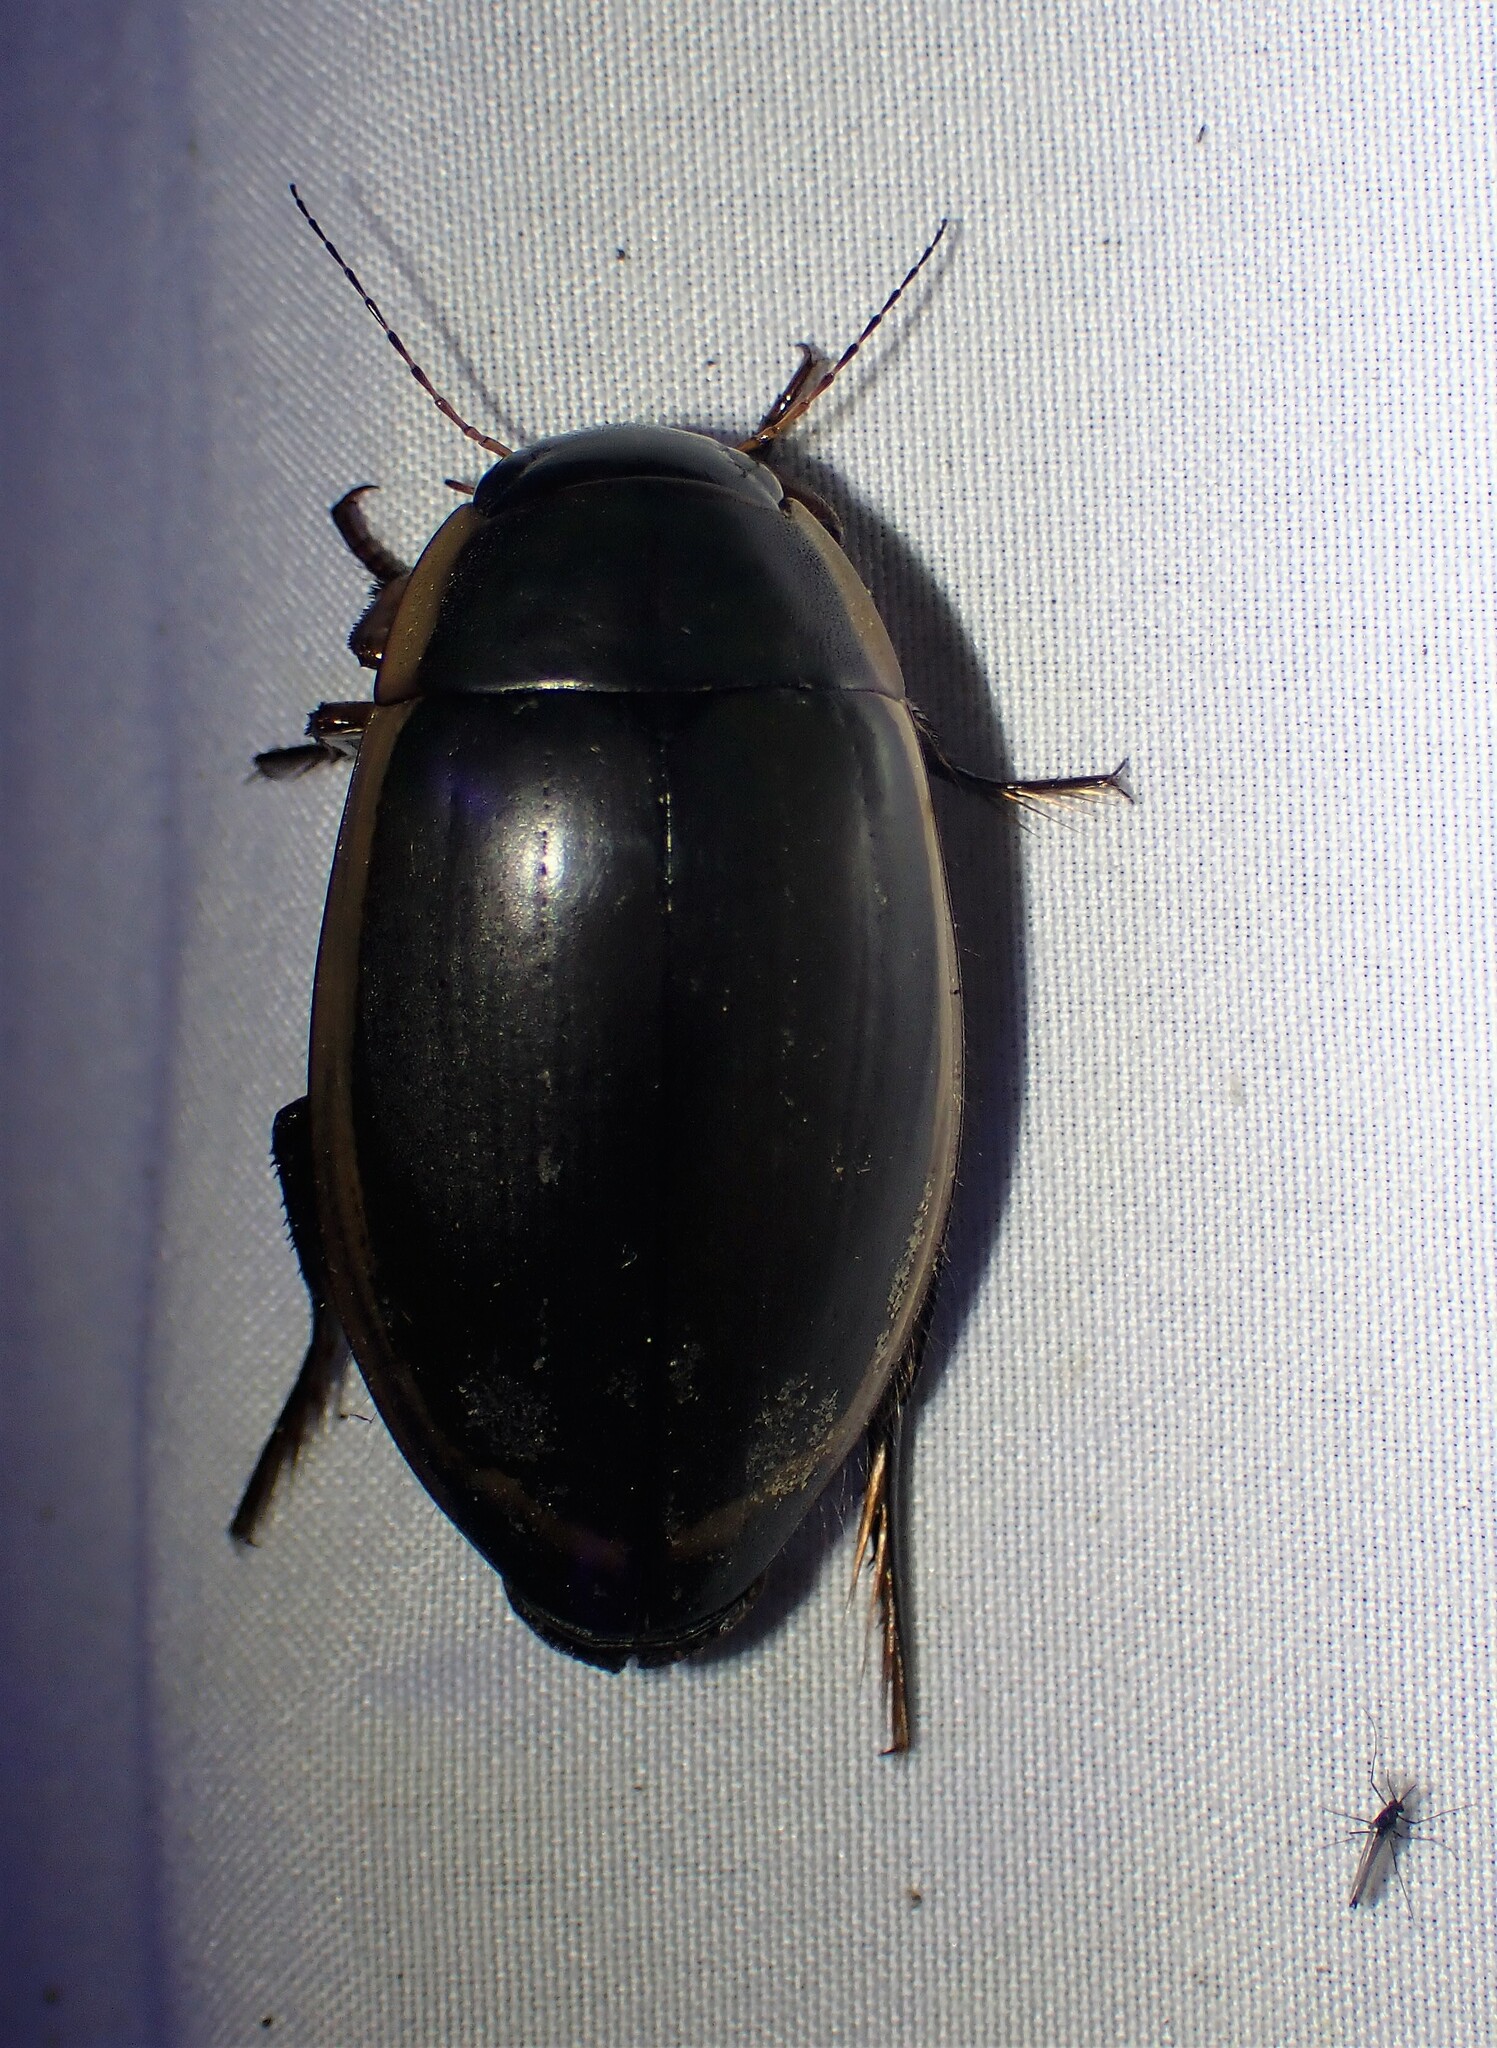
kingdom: Animalia
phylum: Arthropoda
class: Insecta
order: Coleoptera
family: Dytiscidae
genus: Dytiscus
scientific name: Dytiscus verticalis
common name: Vertical diving beetle
